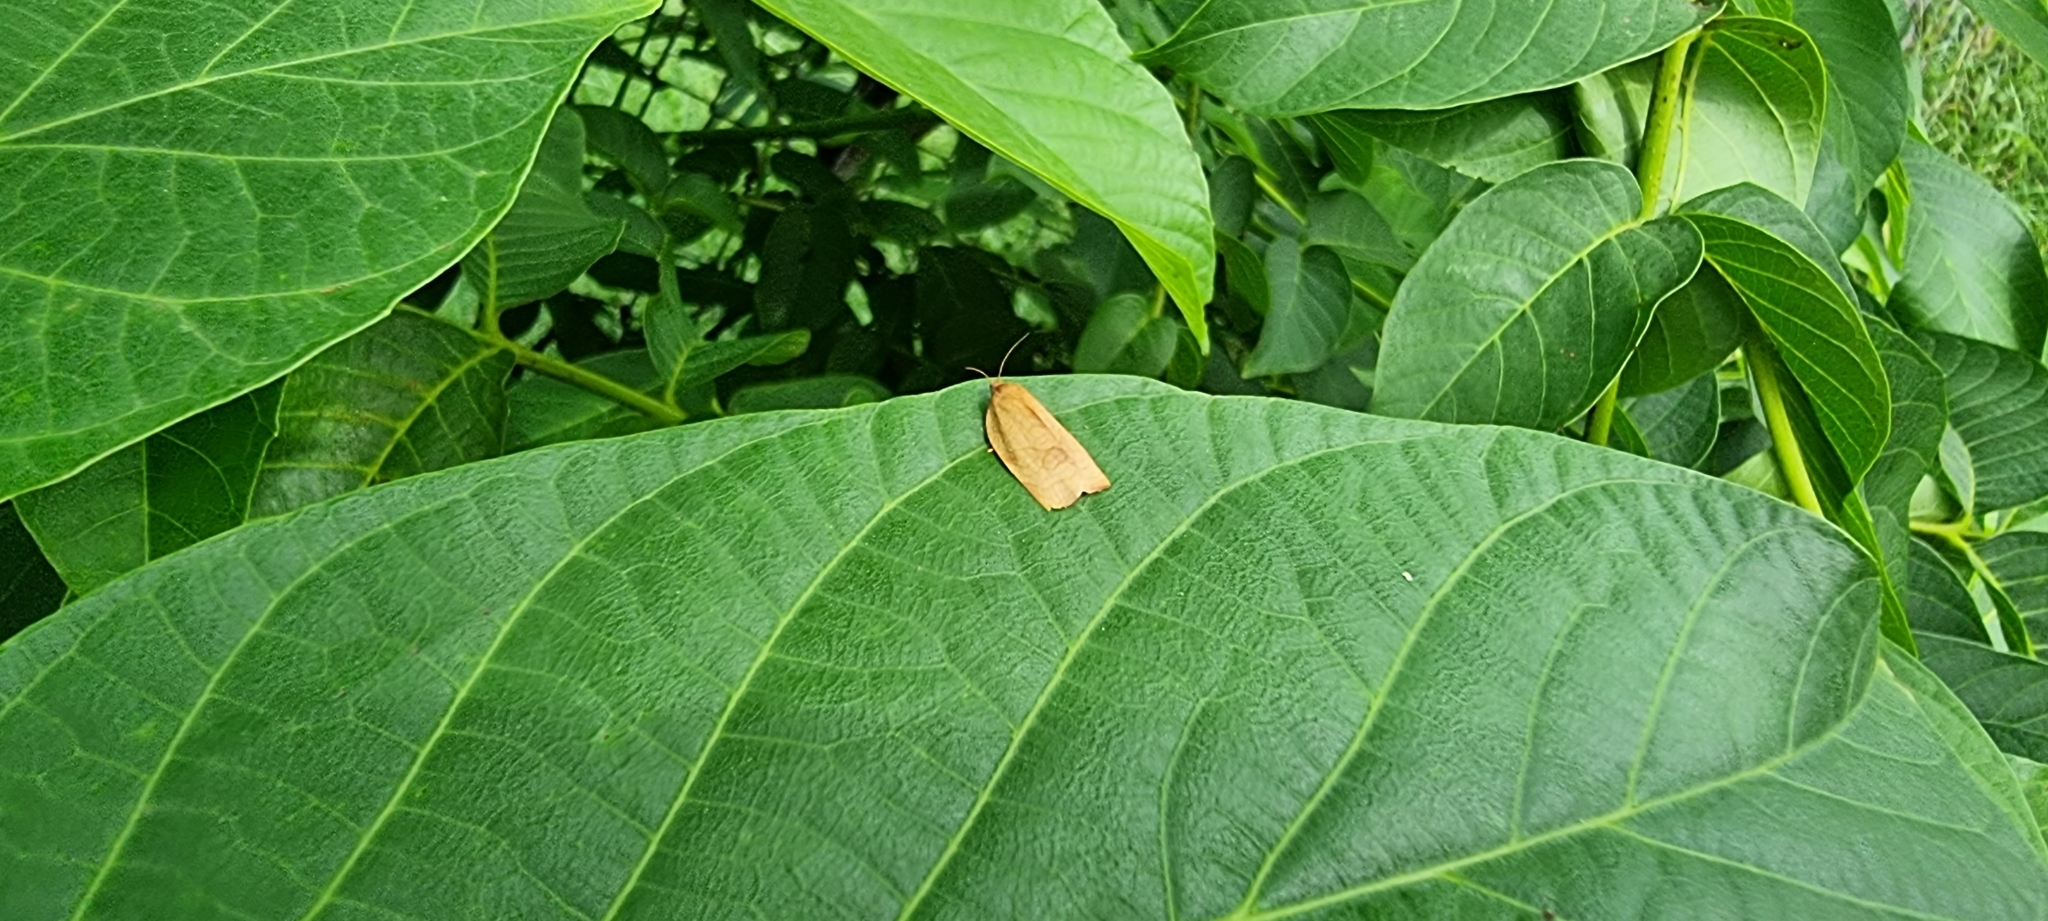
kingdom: Animalia
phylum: Arthropoda
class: Insecta
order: Lepidoptera
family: Tortricidae
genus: Cacoecimorpha
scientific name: Cacoecimorpha pronubana
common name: Carnation tortrix
